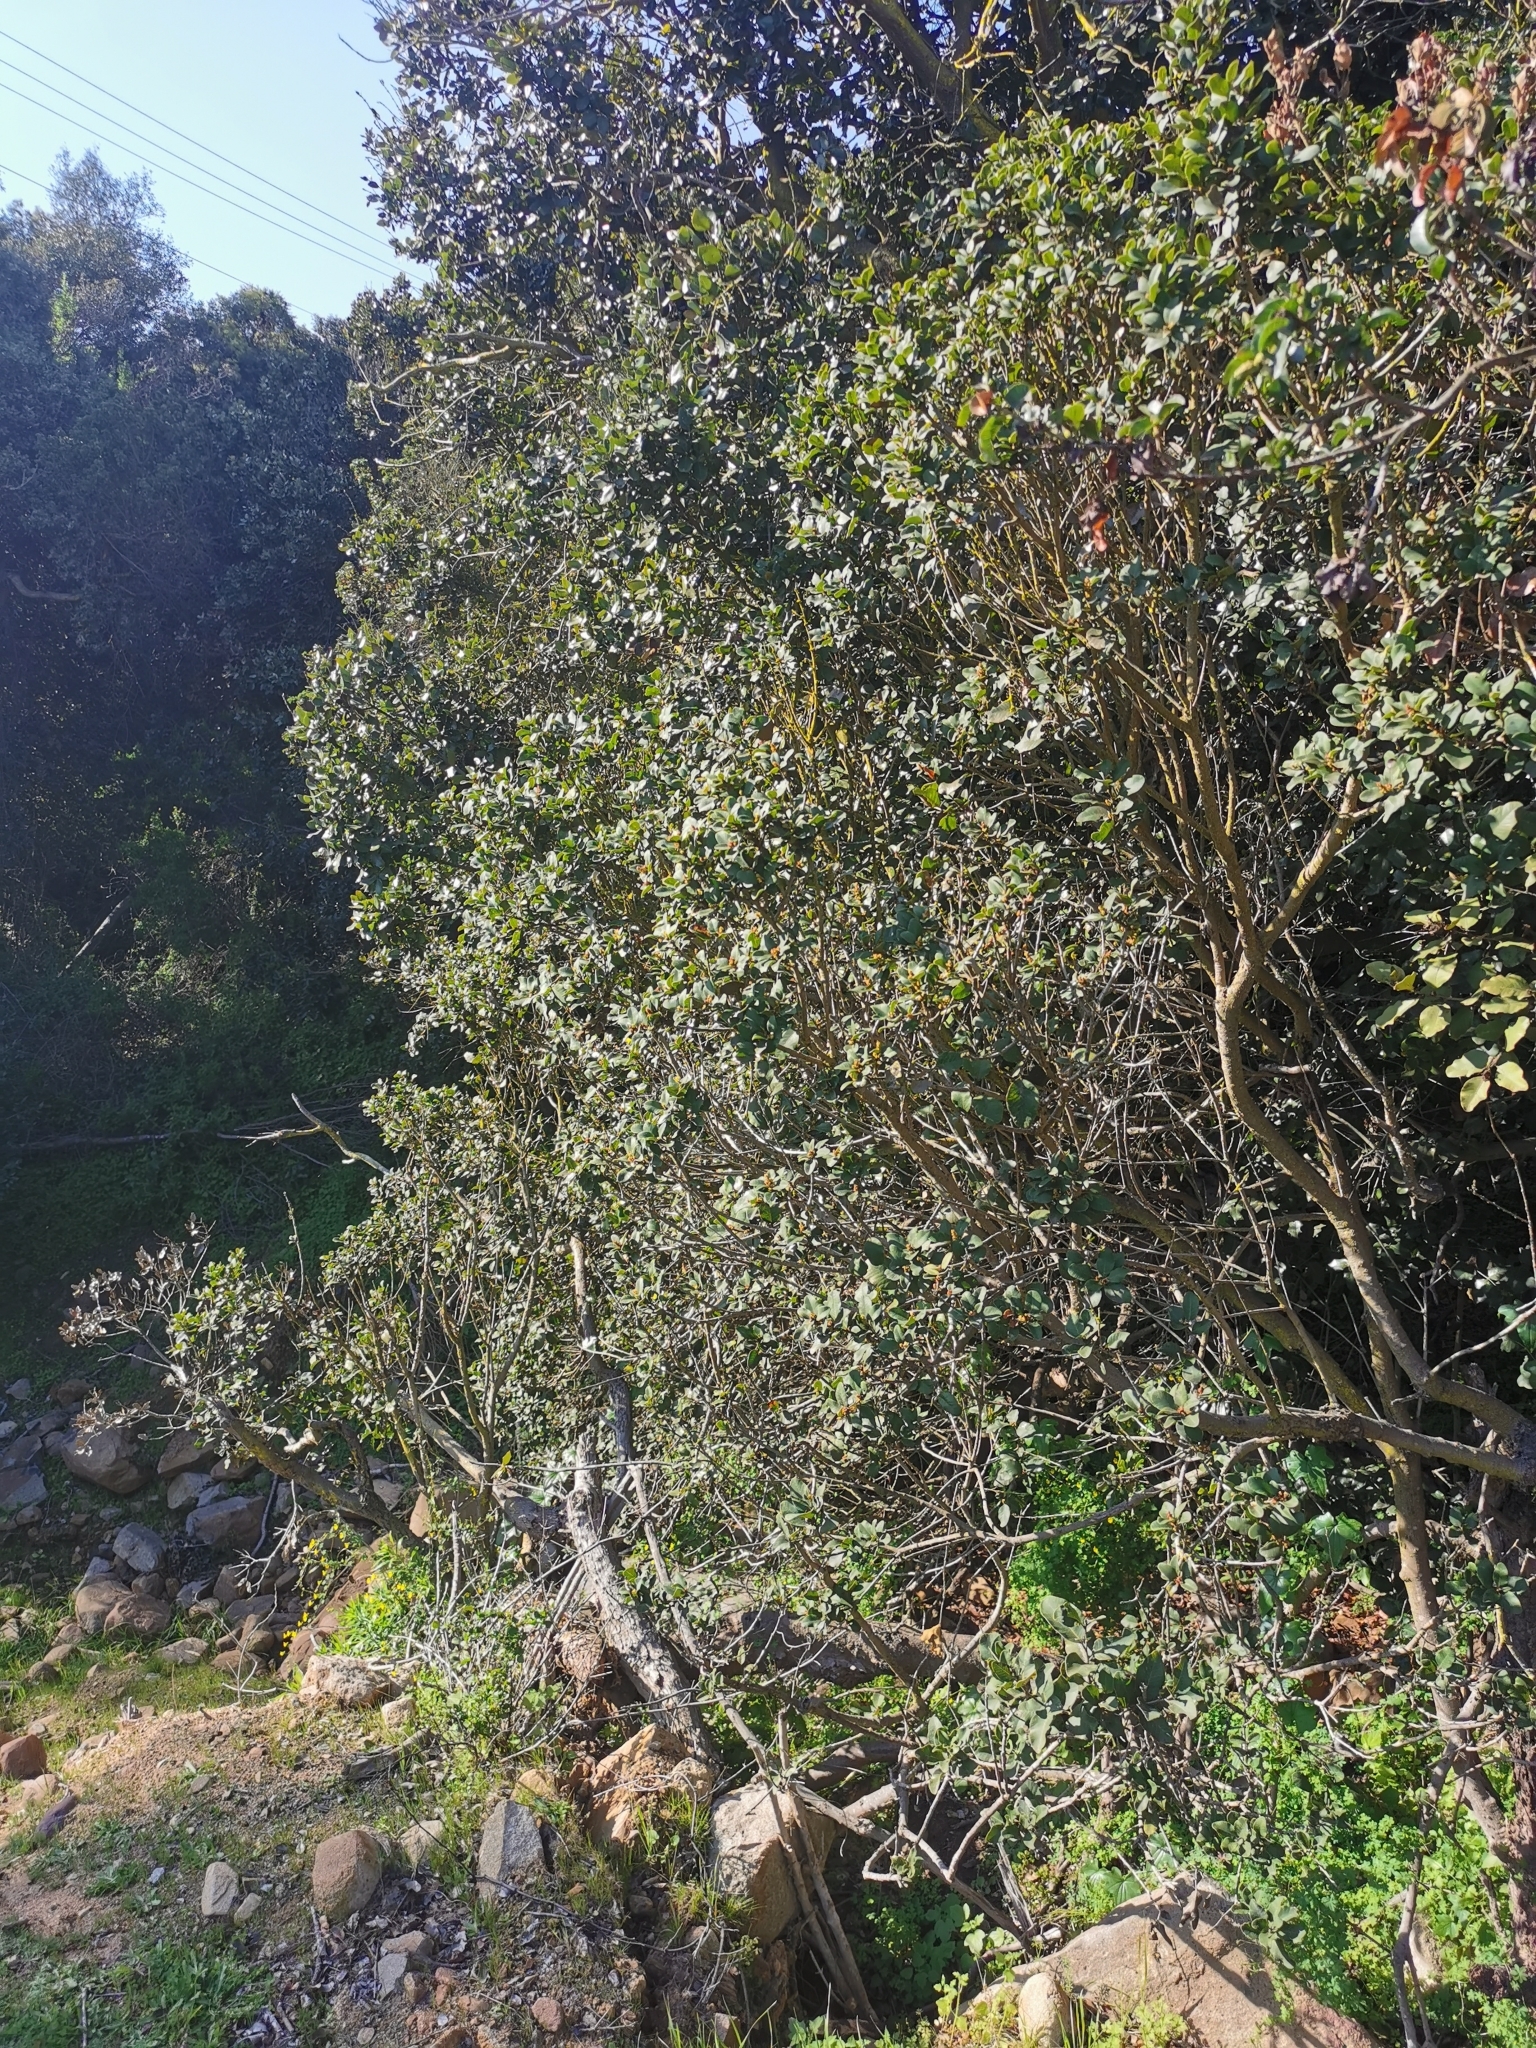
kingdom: Plantae
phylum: Tracheophyta
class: Magnoliopsida
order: Sapindales
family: Anacardiaceae
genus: Lithraea
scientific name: Lithraea caustica
